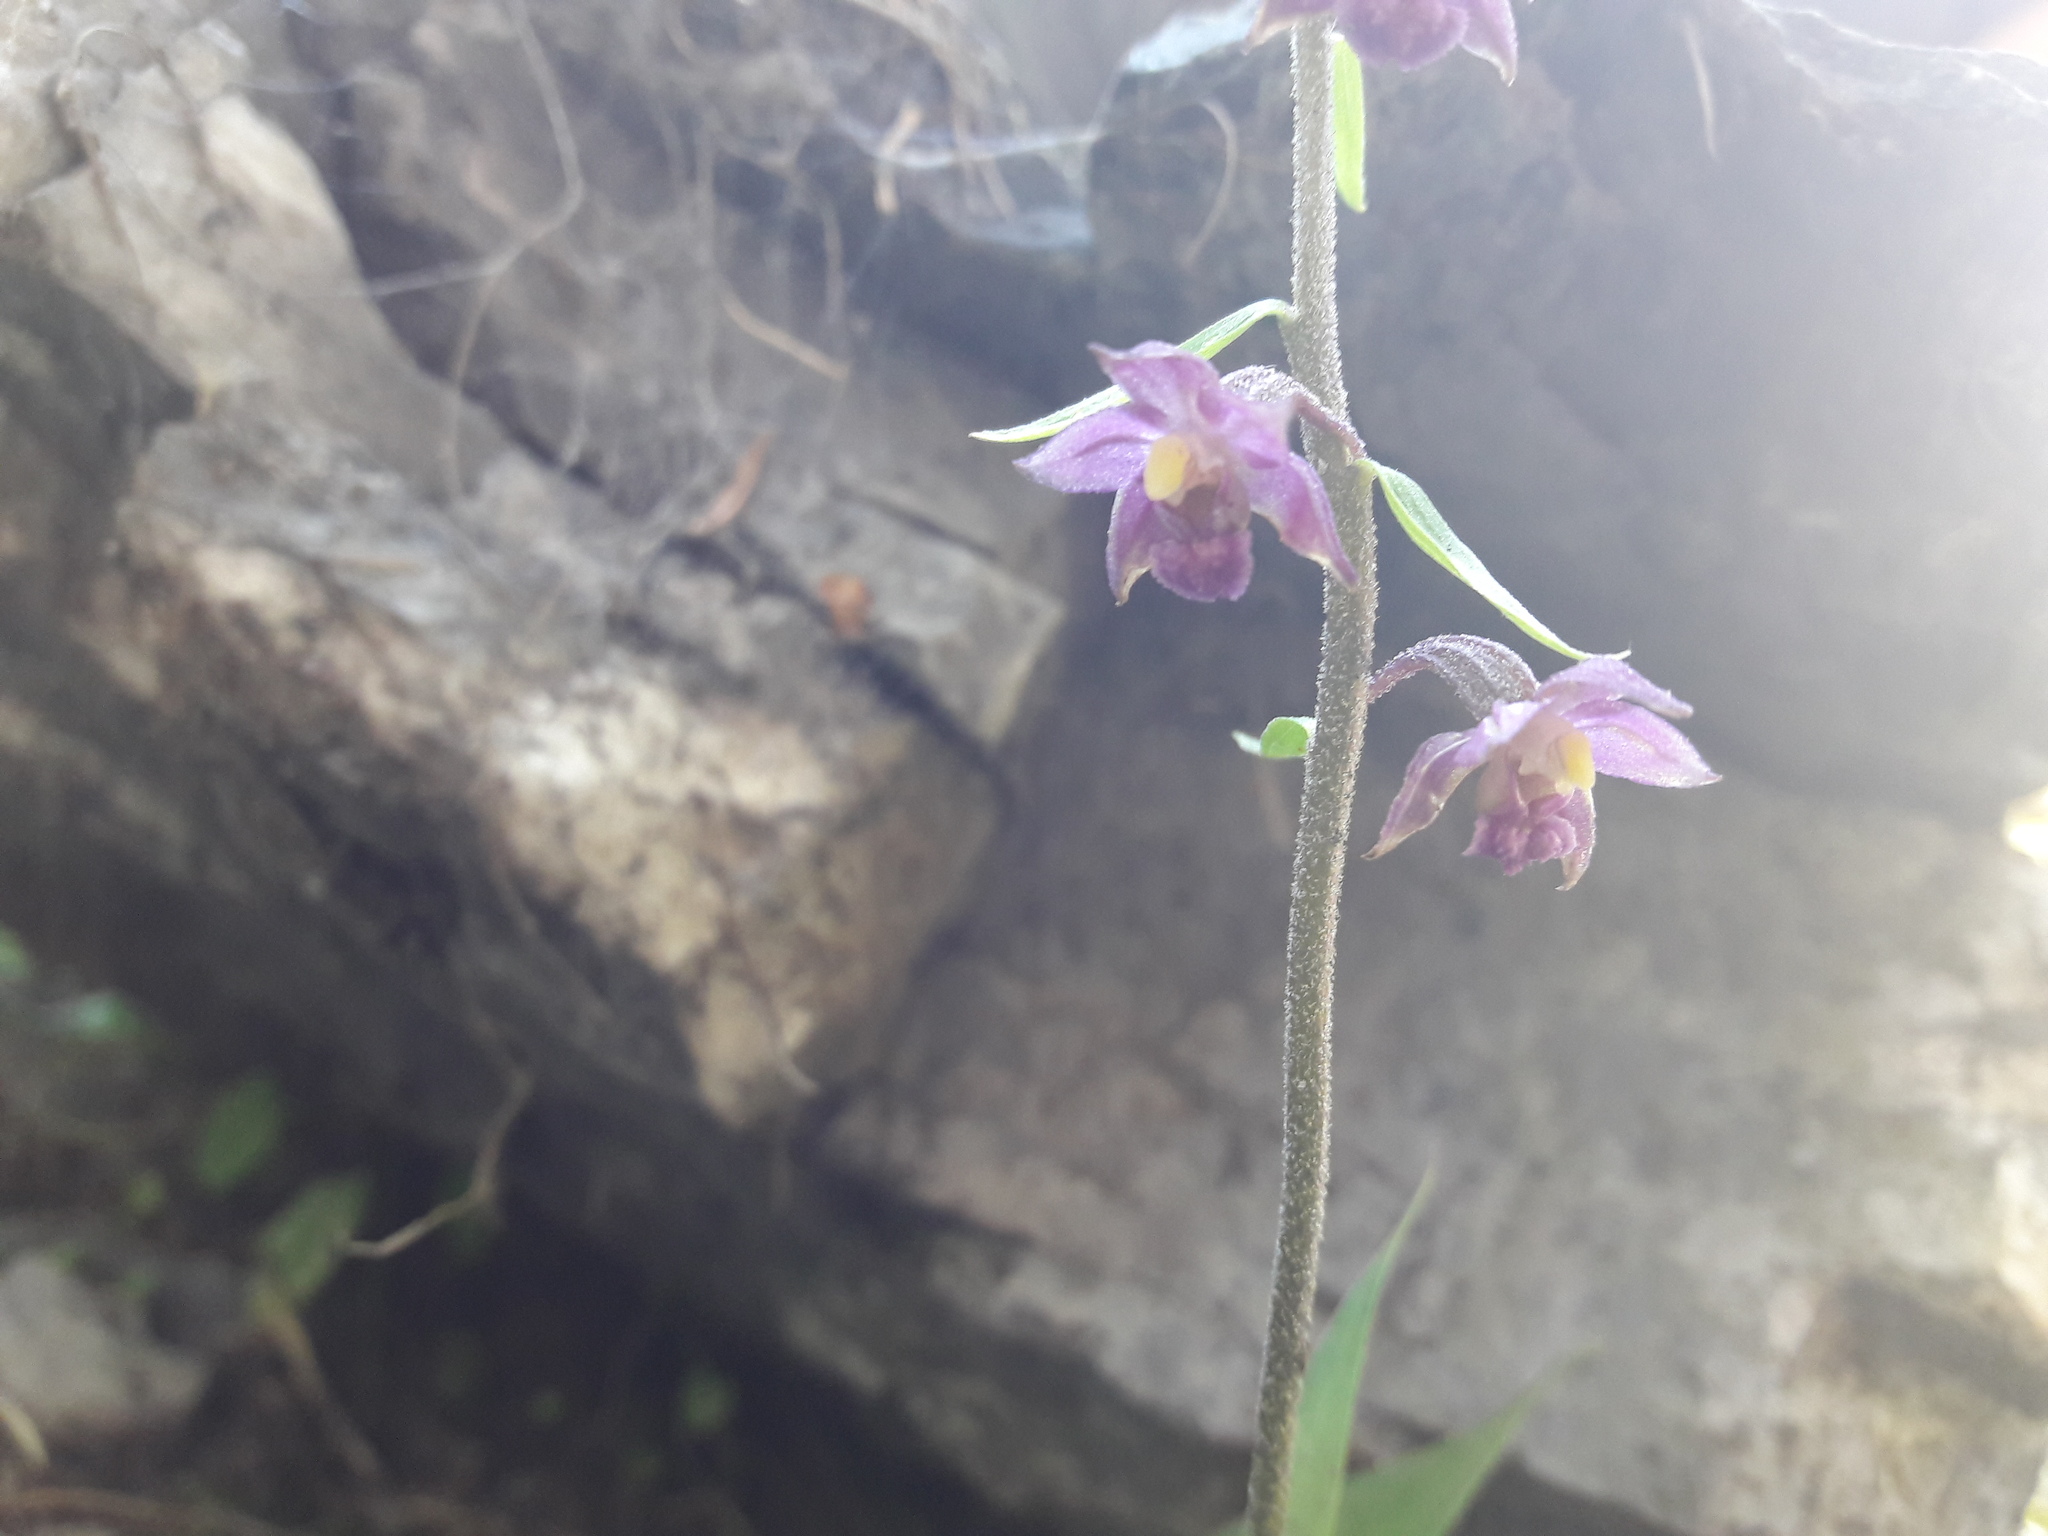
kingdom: Plantae
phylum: Tracheophyta
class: Liliopsida
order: Asparagales
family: Orchidaceae
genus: Epipactis
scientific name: Epipactis atrorubens
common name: Dark-red helleborine
